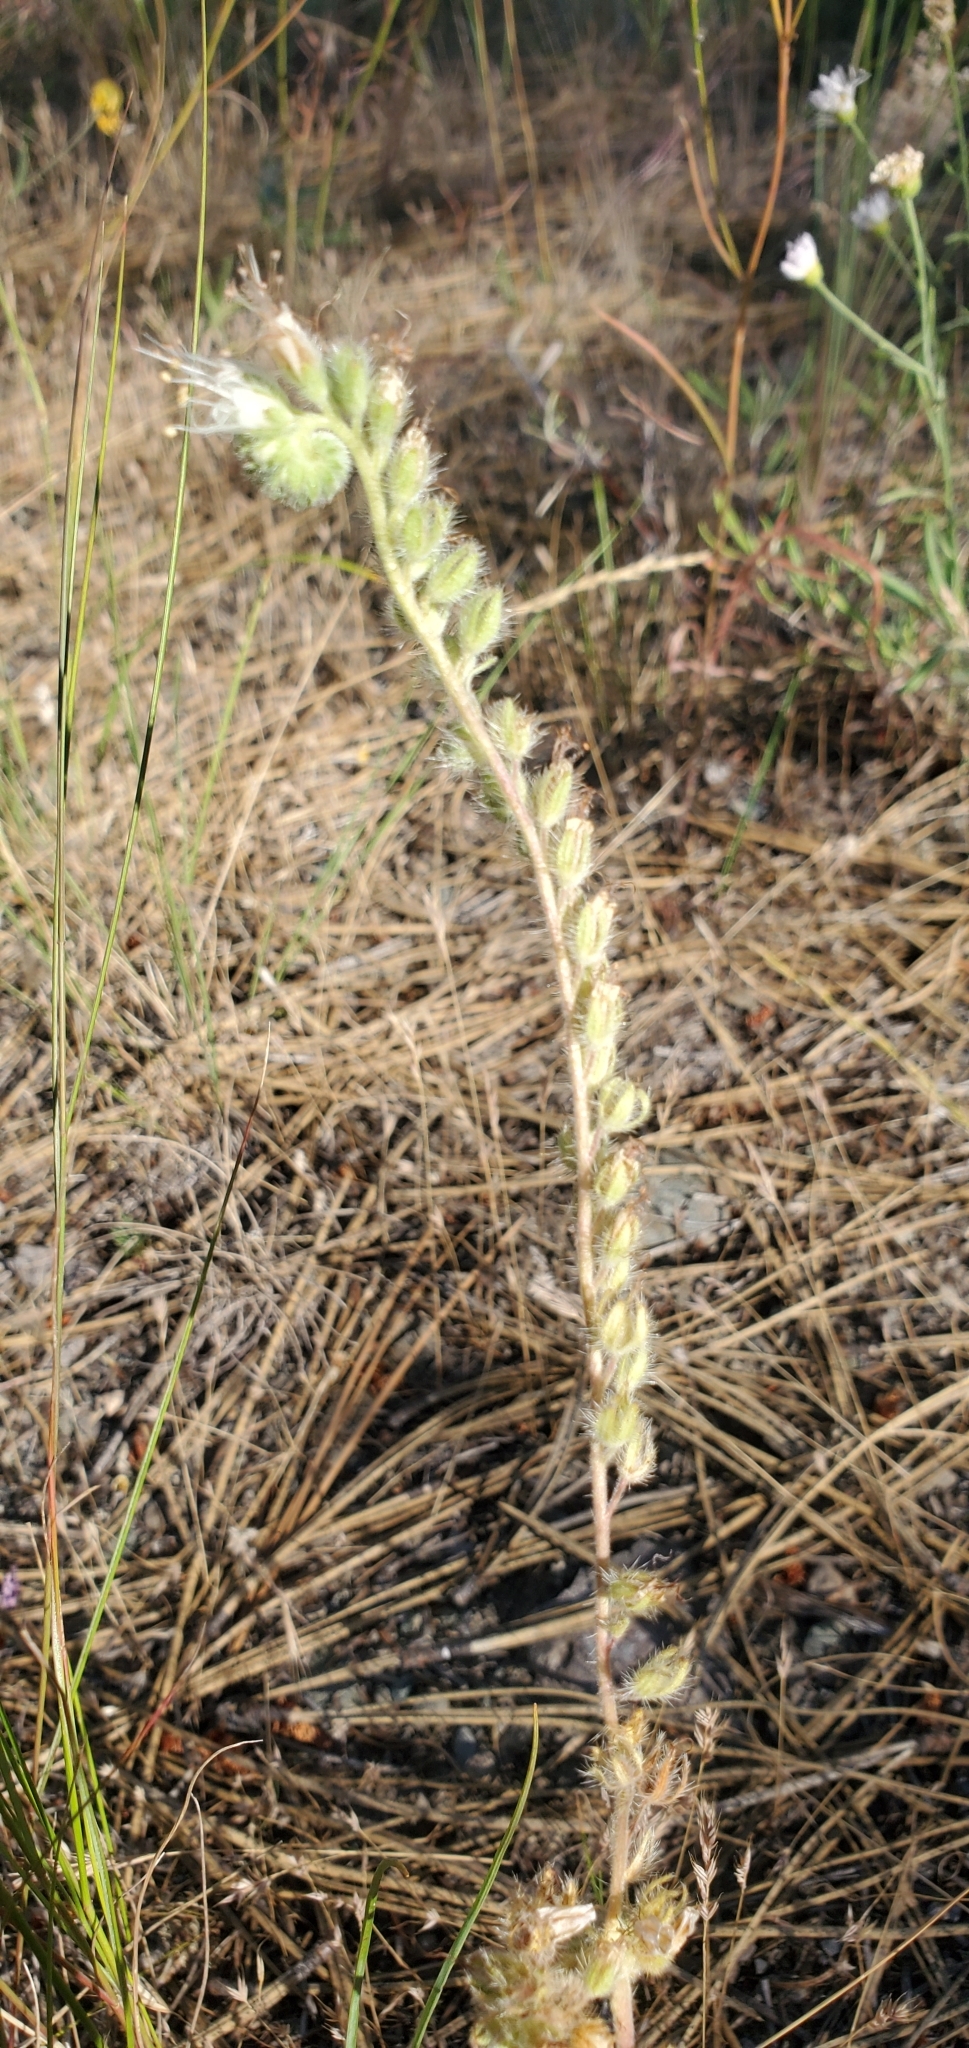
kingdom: Plantae
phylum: Tracheophyta
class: Magnoliopsida
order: Boraginales
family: Hydrophyllaceae
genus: Phacelia
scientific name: Phacelia hastata
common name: Silver-leaved phacelia
